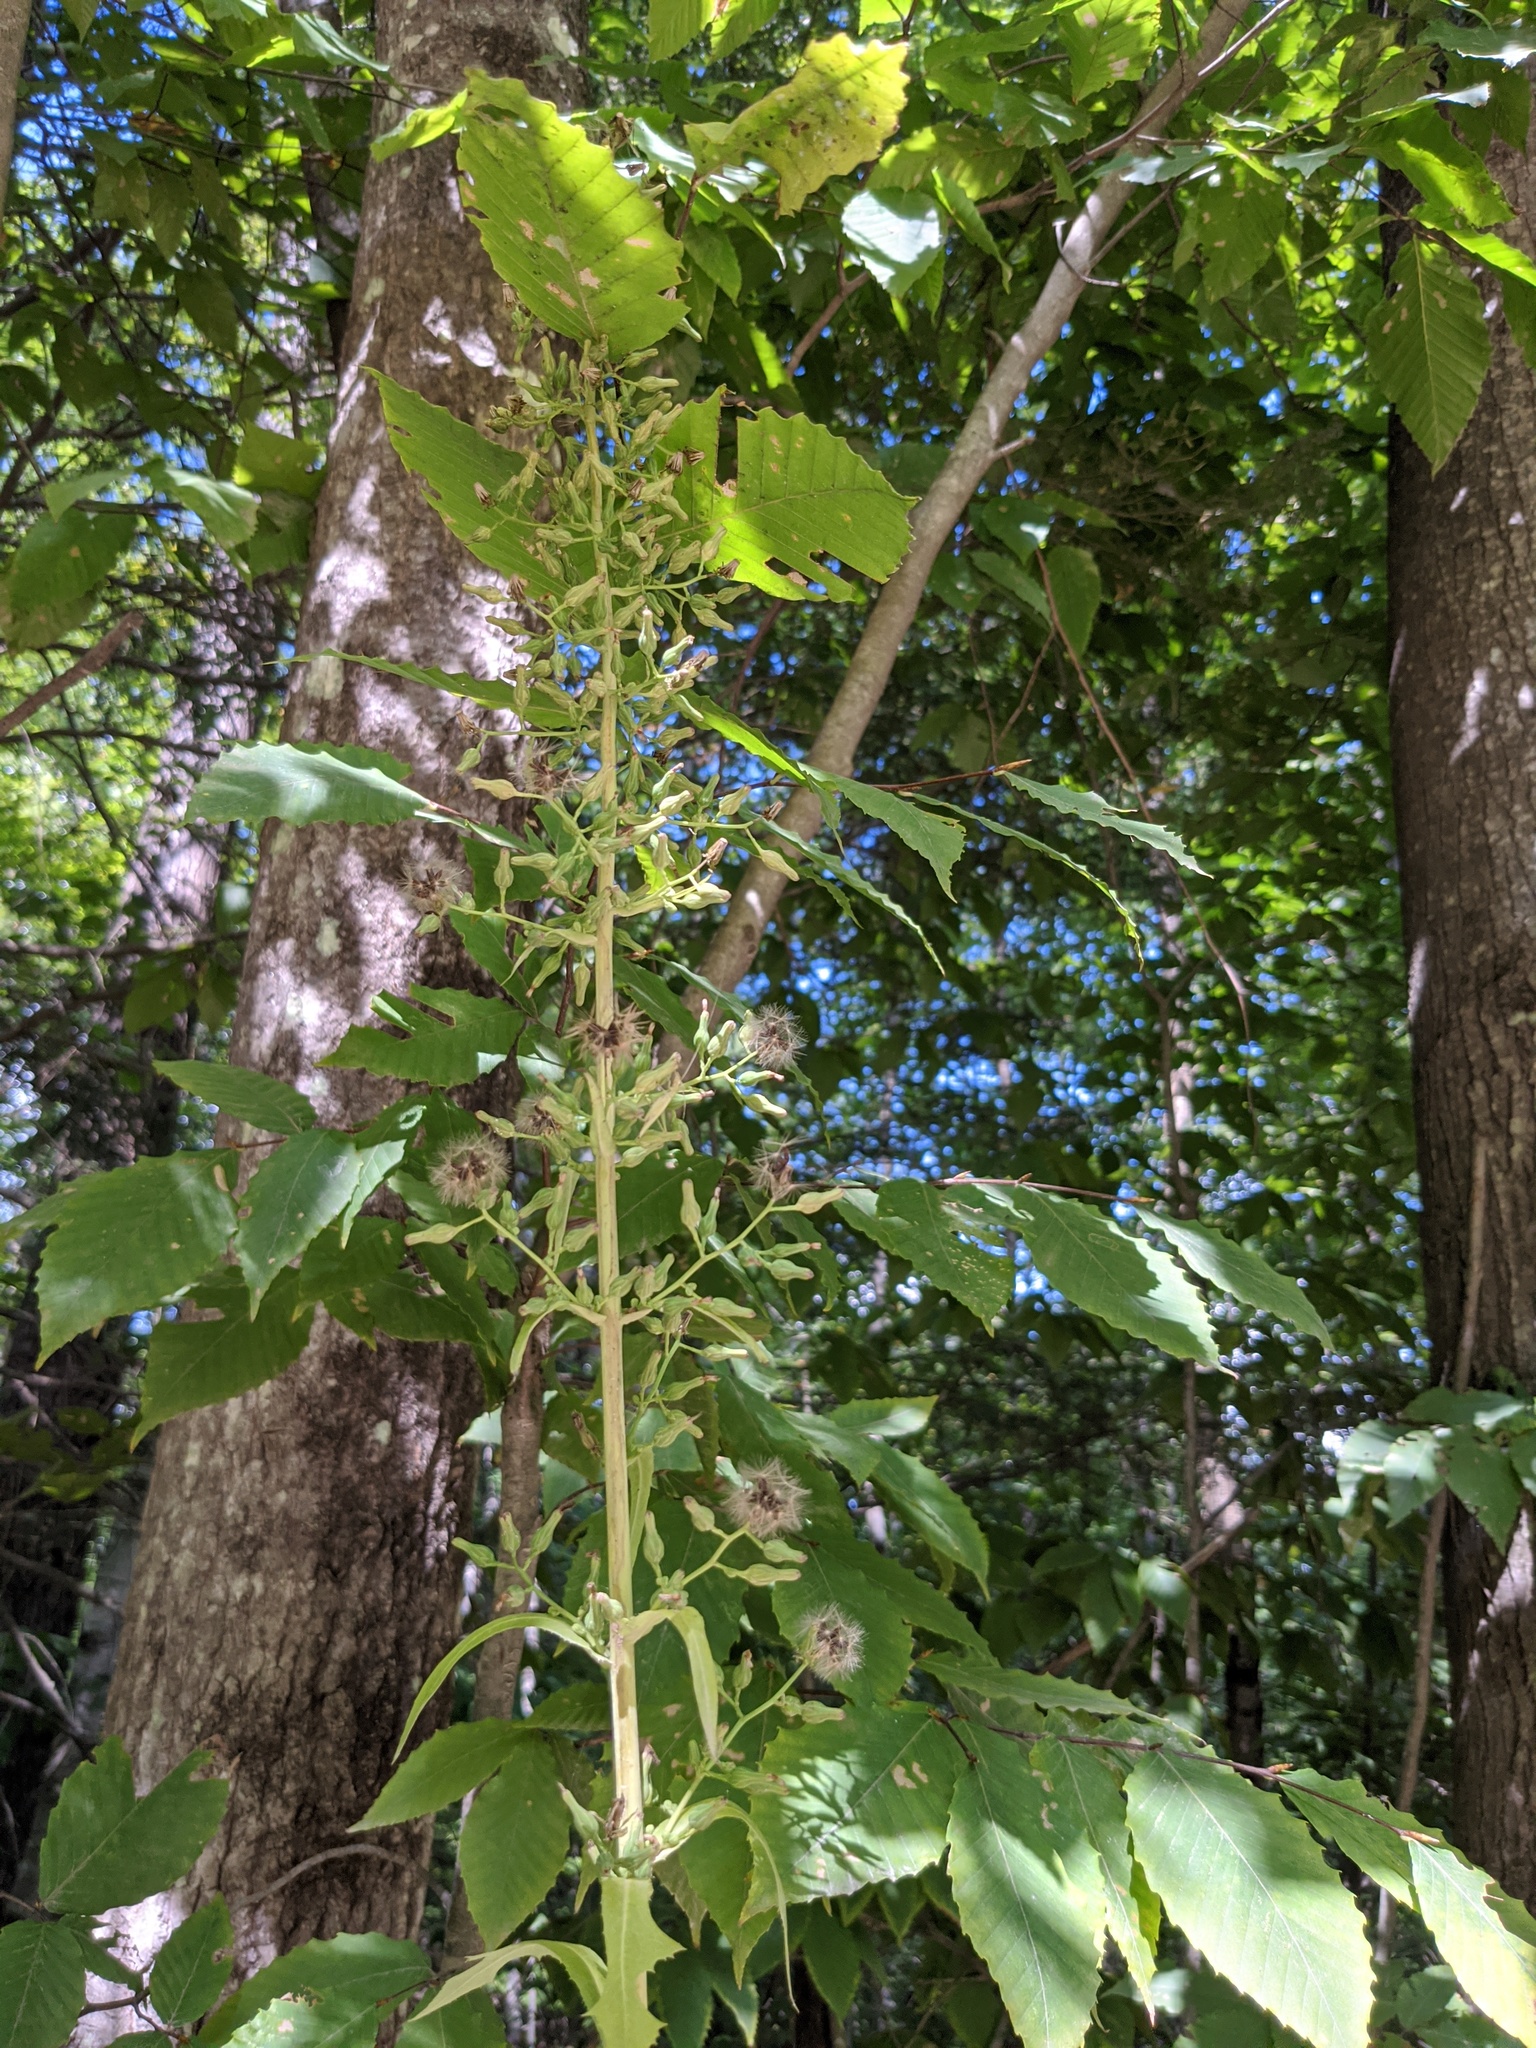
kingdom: Plantae
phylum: Tracheophyta
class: Magnoliopsida
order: Asterales
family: Asteraceae
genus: Lactuca
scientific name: Lactuca biennis
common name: Blue wood lettuce
